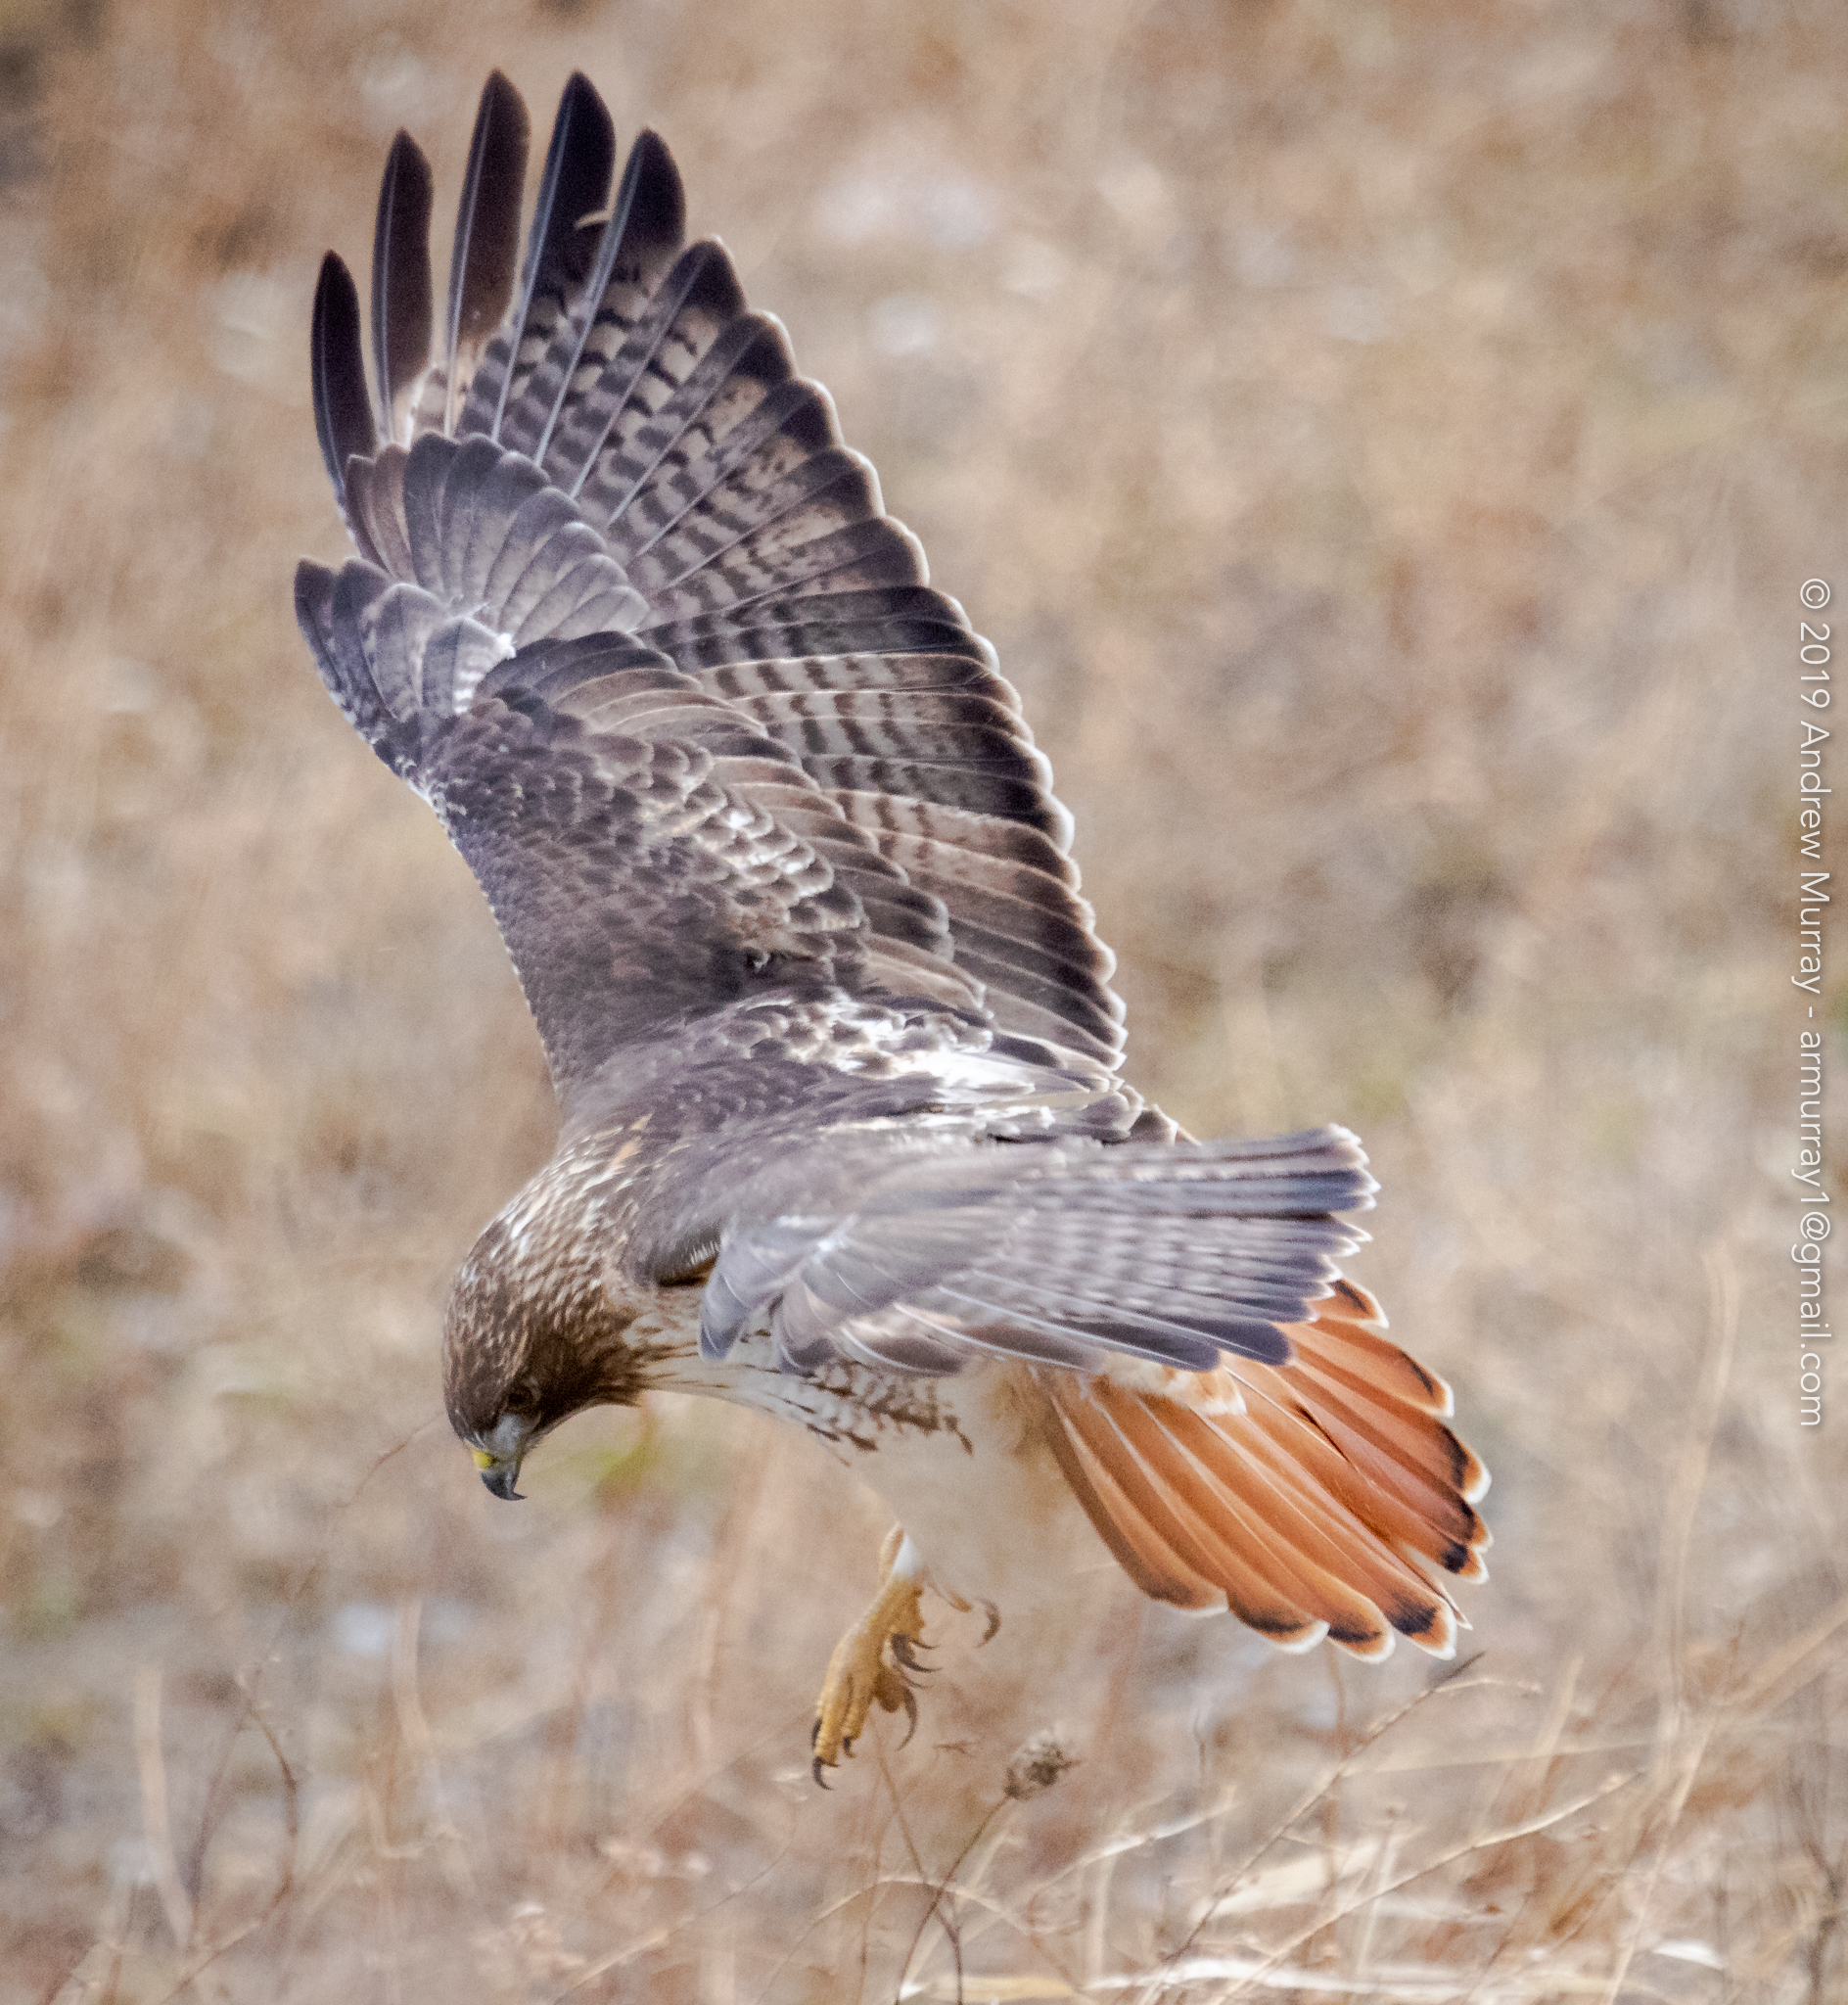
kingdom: Animalia
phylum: Chordata
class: Aves
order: Accipitriformes
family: Accipitridae
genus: Buteo
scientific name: Buteo jamaicensis
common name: Red-tailed hawk
